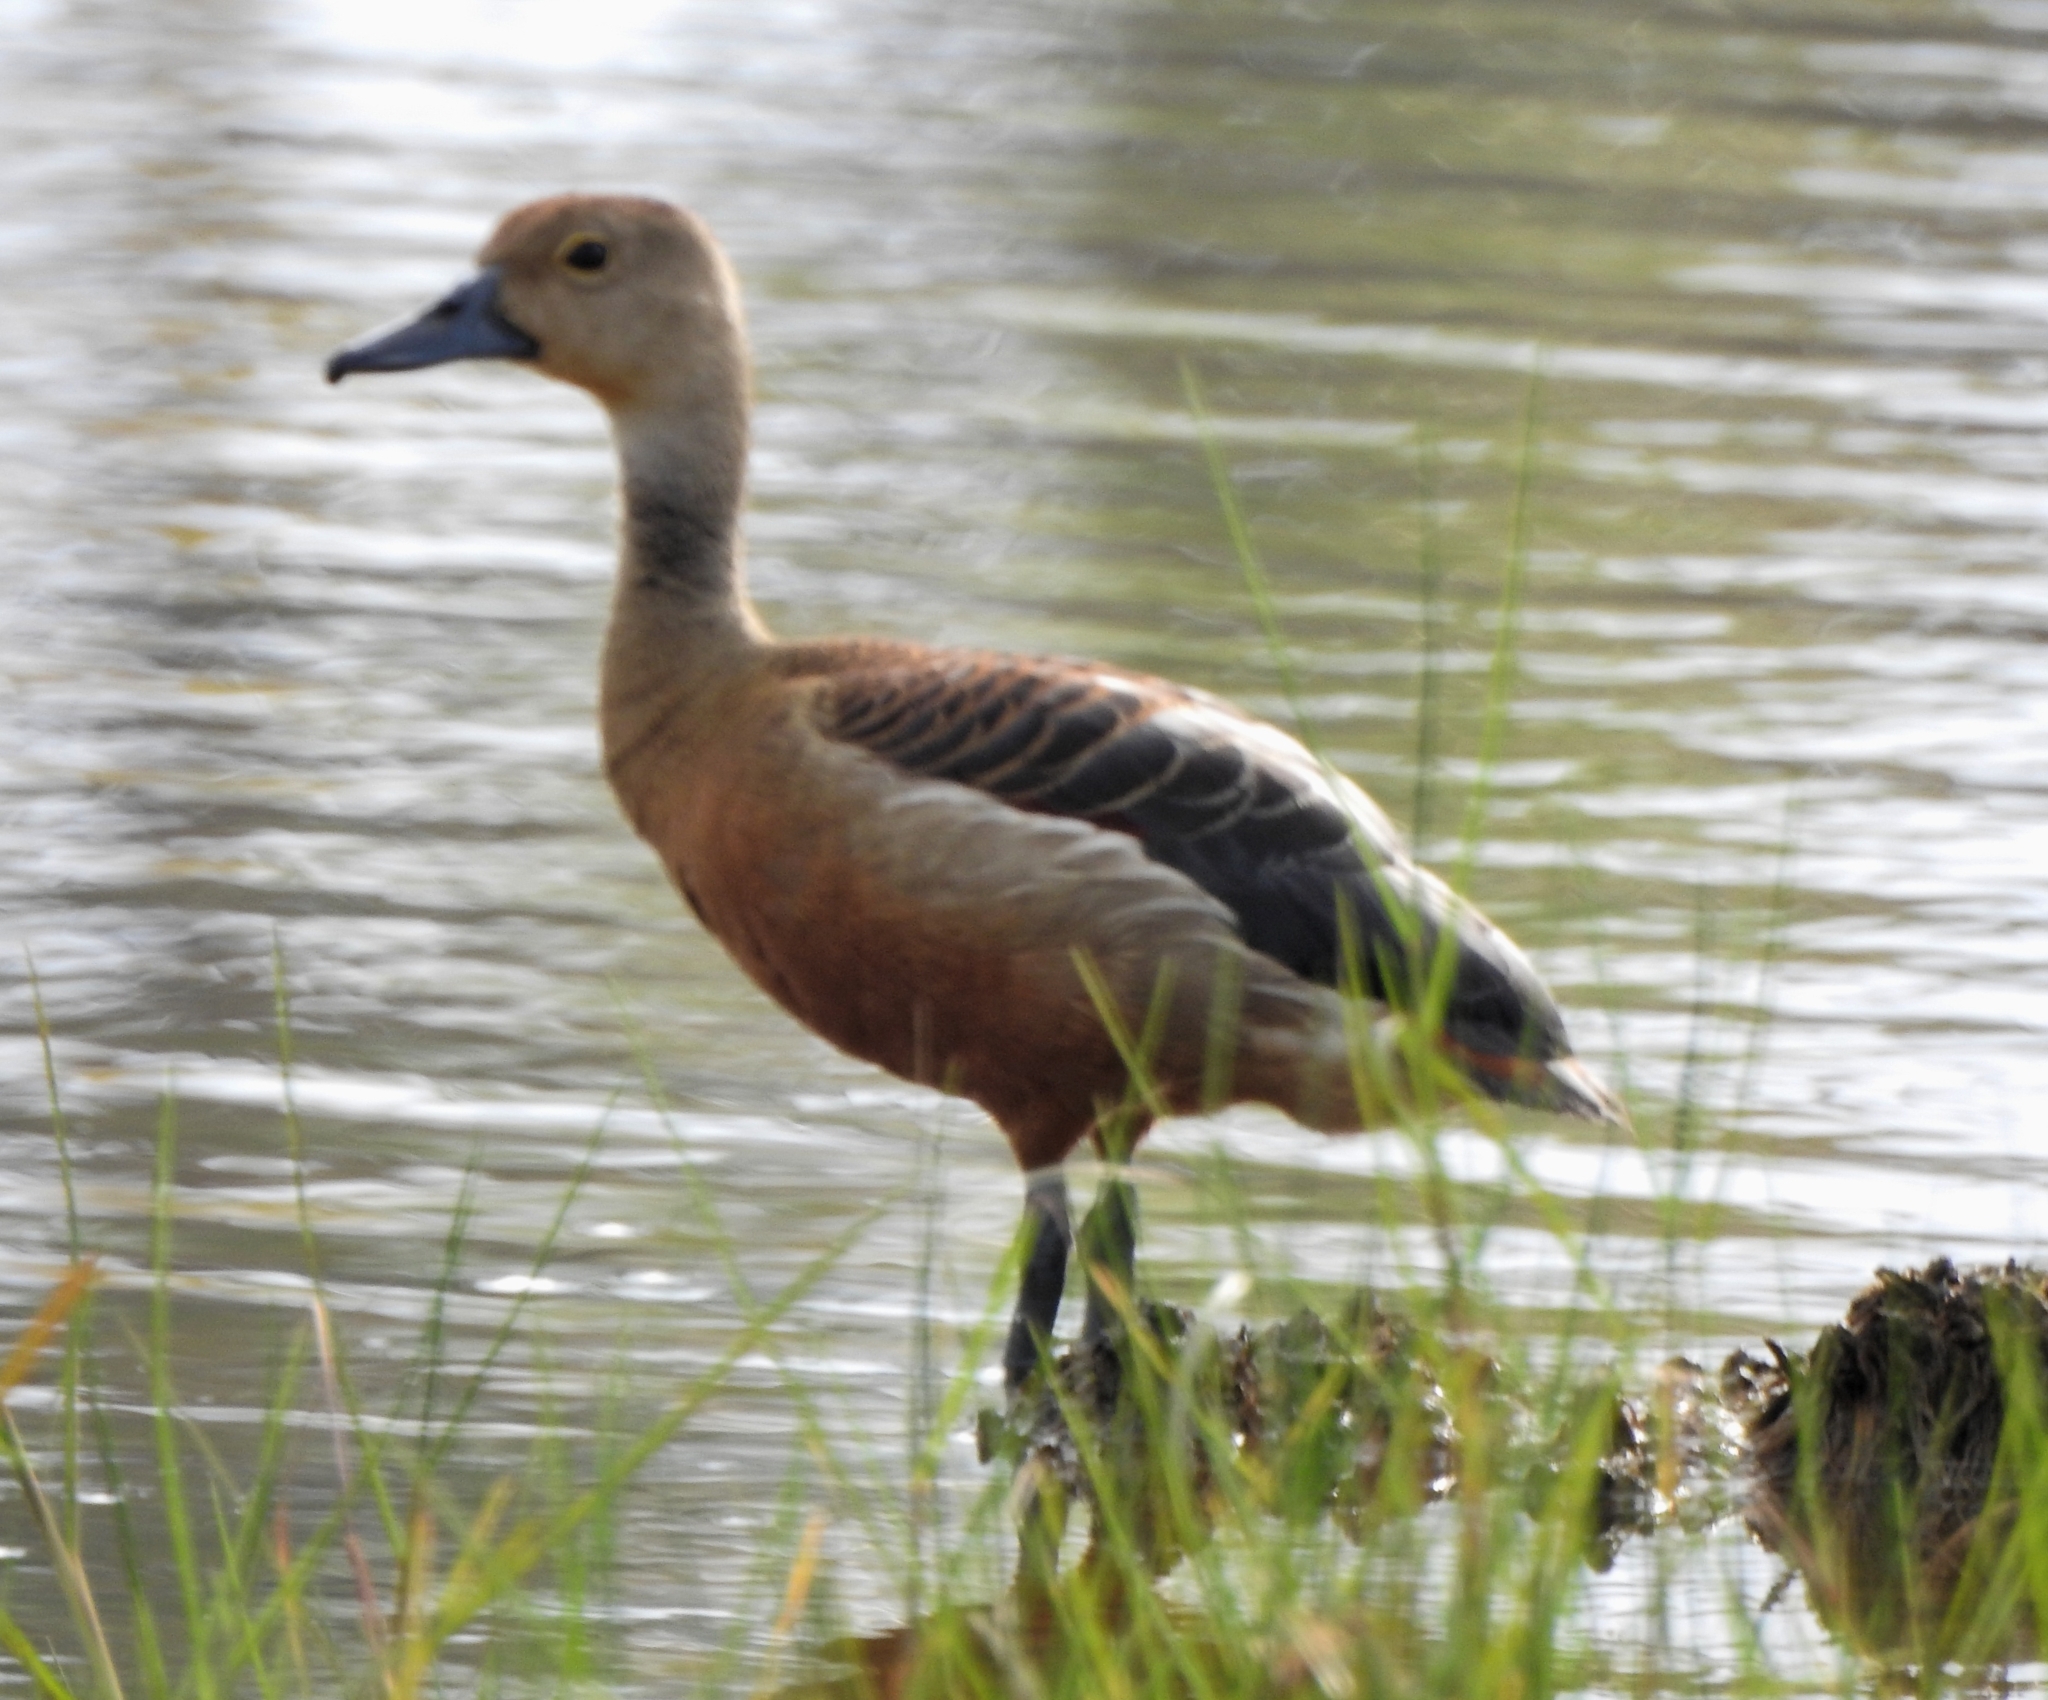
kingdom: Animalia
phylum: Chordata
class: Aves
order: Anseriformes
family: Anatidae
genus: Dendrocygna
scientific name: Dendrocygna javanica
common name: Lesser whistling-duck
